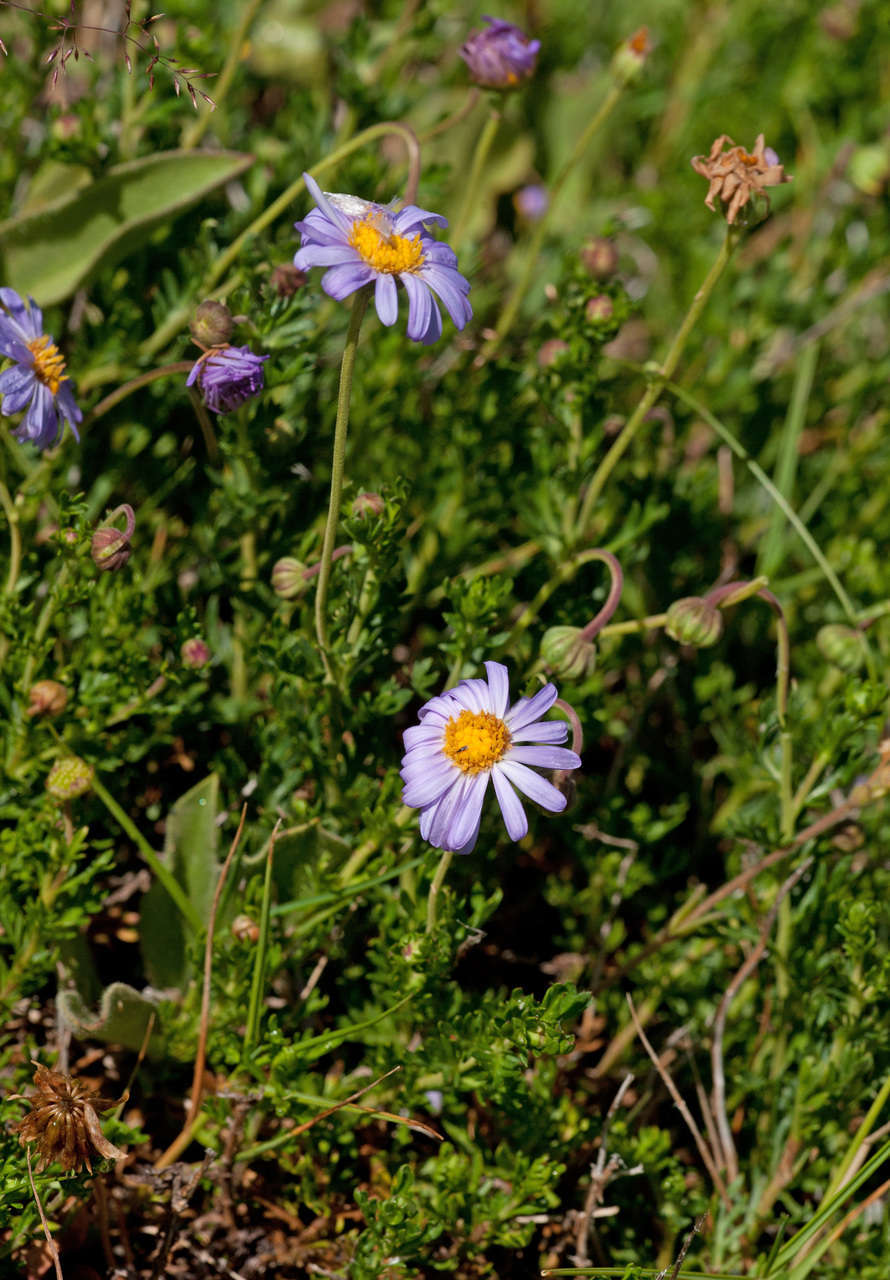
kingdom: Plantae
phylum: Tracheophyta
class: Magnoliopsida
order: Asterales
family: Asteraceae
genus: Brachyscome
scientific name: Brachyscome rigidula
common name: Leafy daisy
